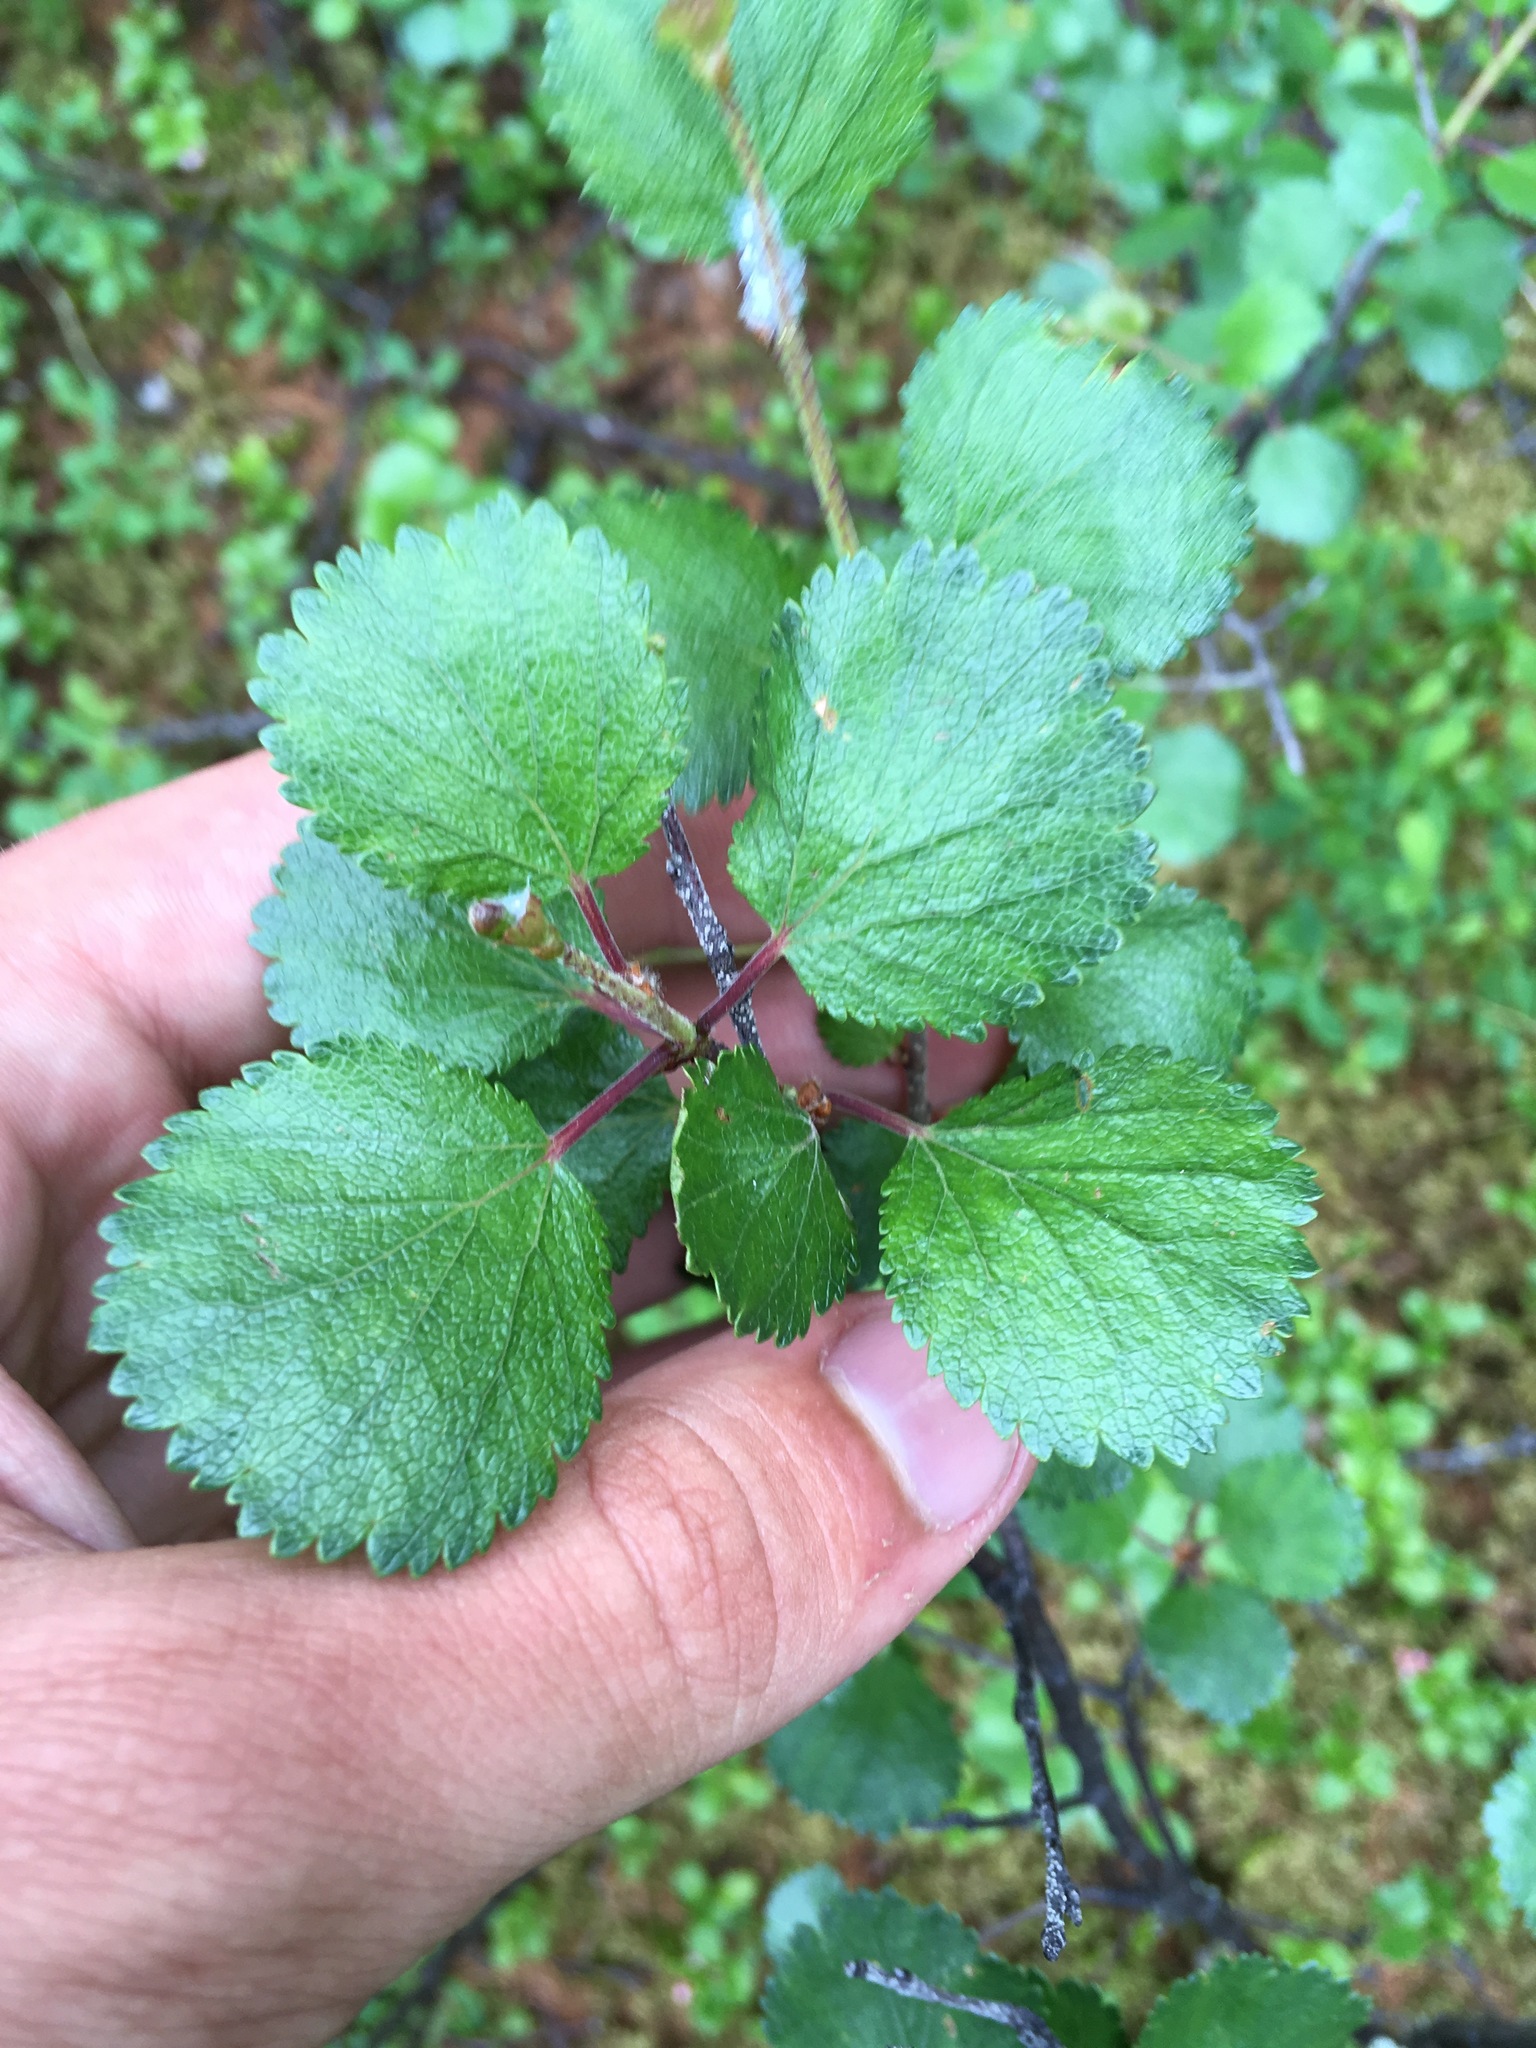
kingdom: Plantae
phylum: Tracheophyta
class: Magnoliopsida
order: Fagales
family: Betulaceae
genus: Betula
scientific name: Betula glandulosa
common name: Dwarf birch
